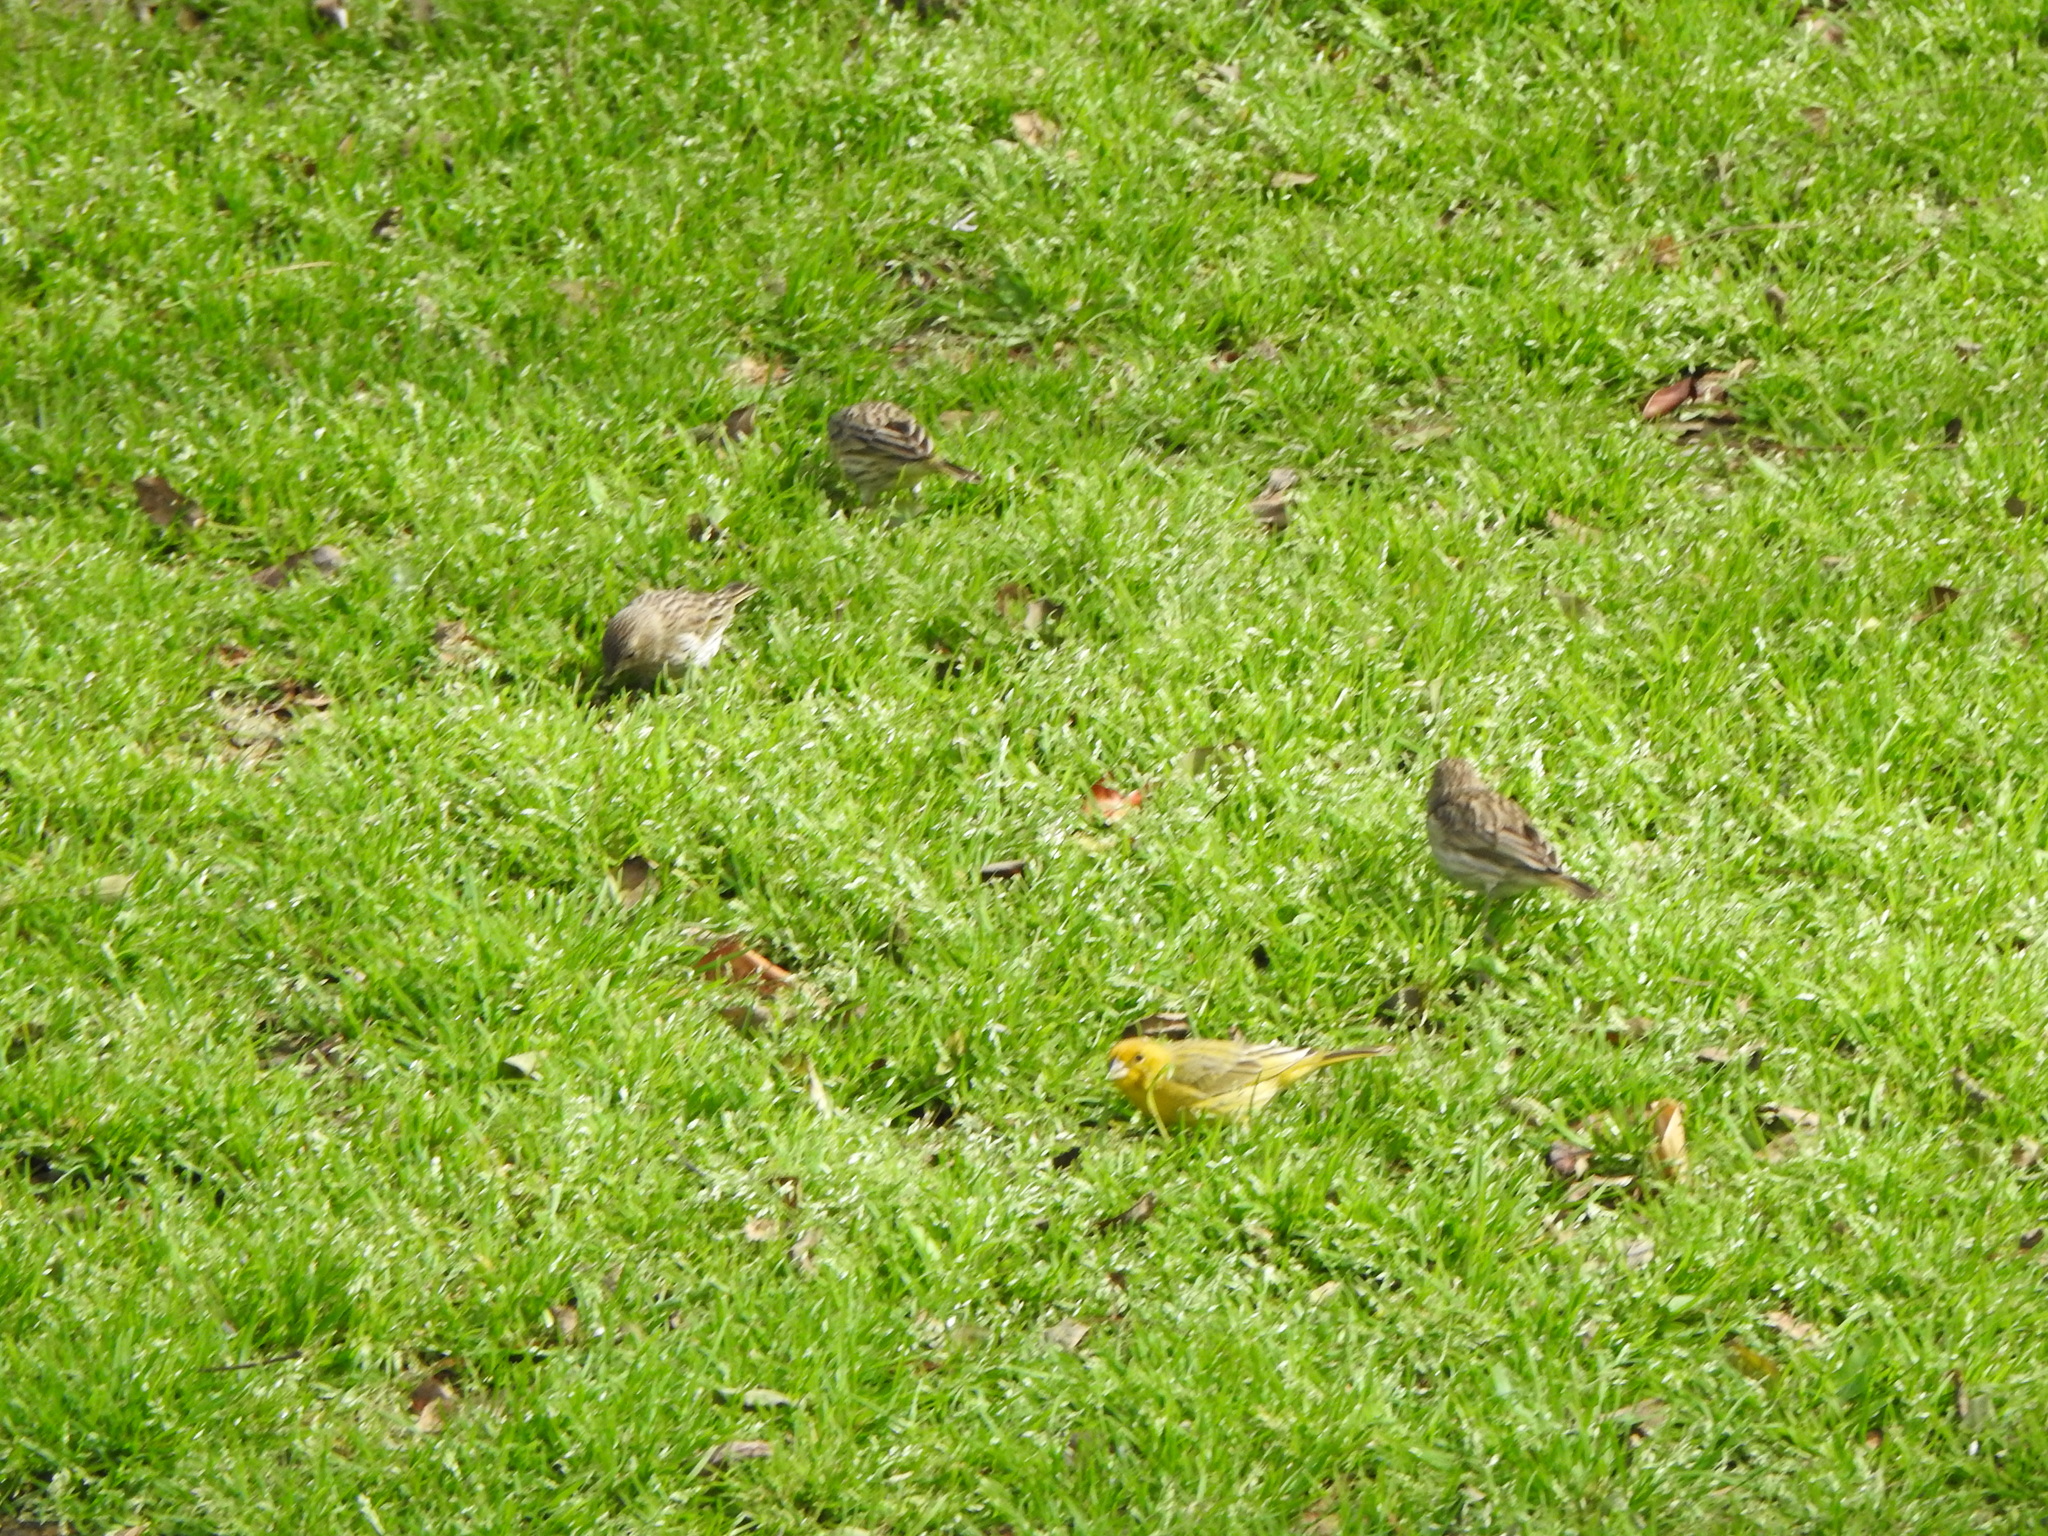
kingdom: Animalia
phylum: Chordata
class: Aves
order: Passeriformes
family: Thraupidae
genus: Sicalis
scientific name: Sicalis flaveola
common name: Saffron finch
